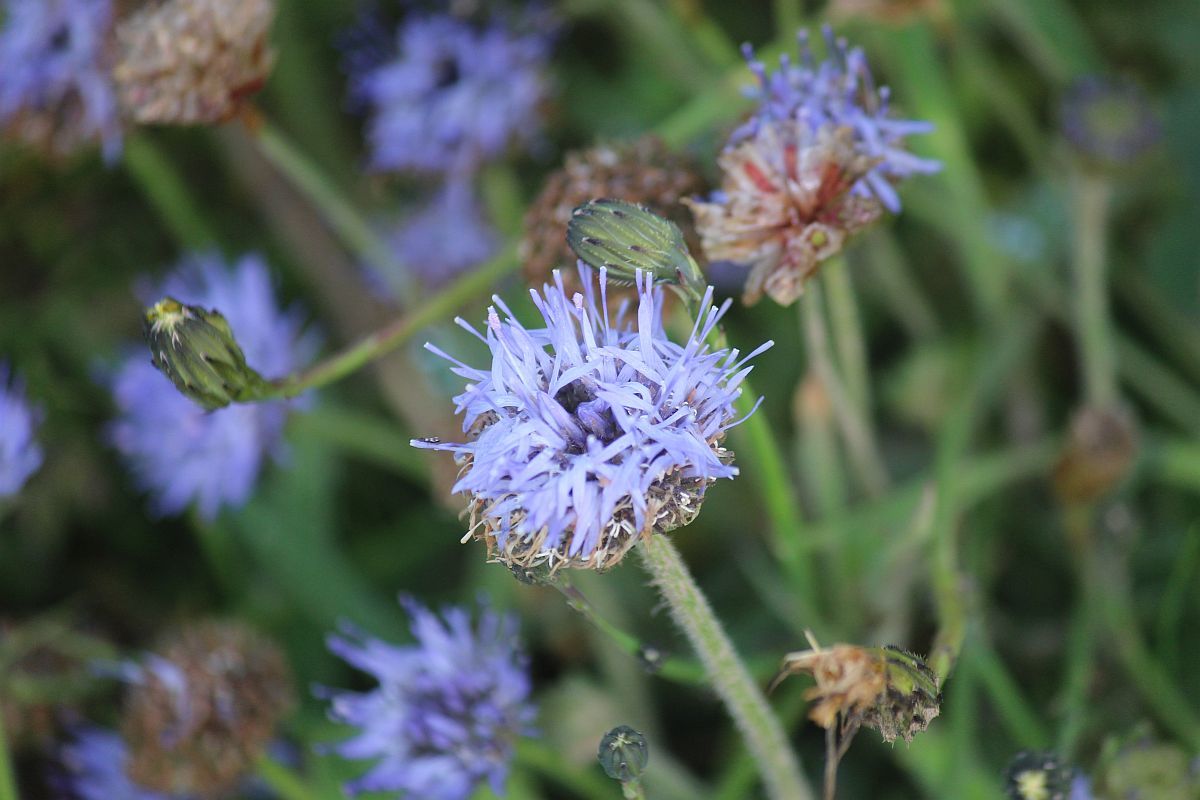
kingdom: Plantae
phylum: Tracheophyta
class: Magnoliopsida
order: Asterales
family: Campanulaceae
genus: Jasione
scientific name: Jasione montana
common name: Sheep's-bit
